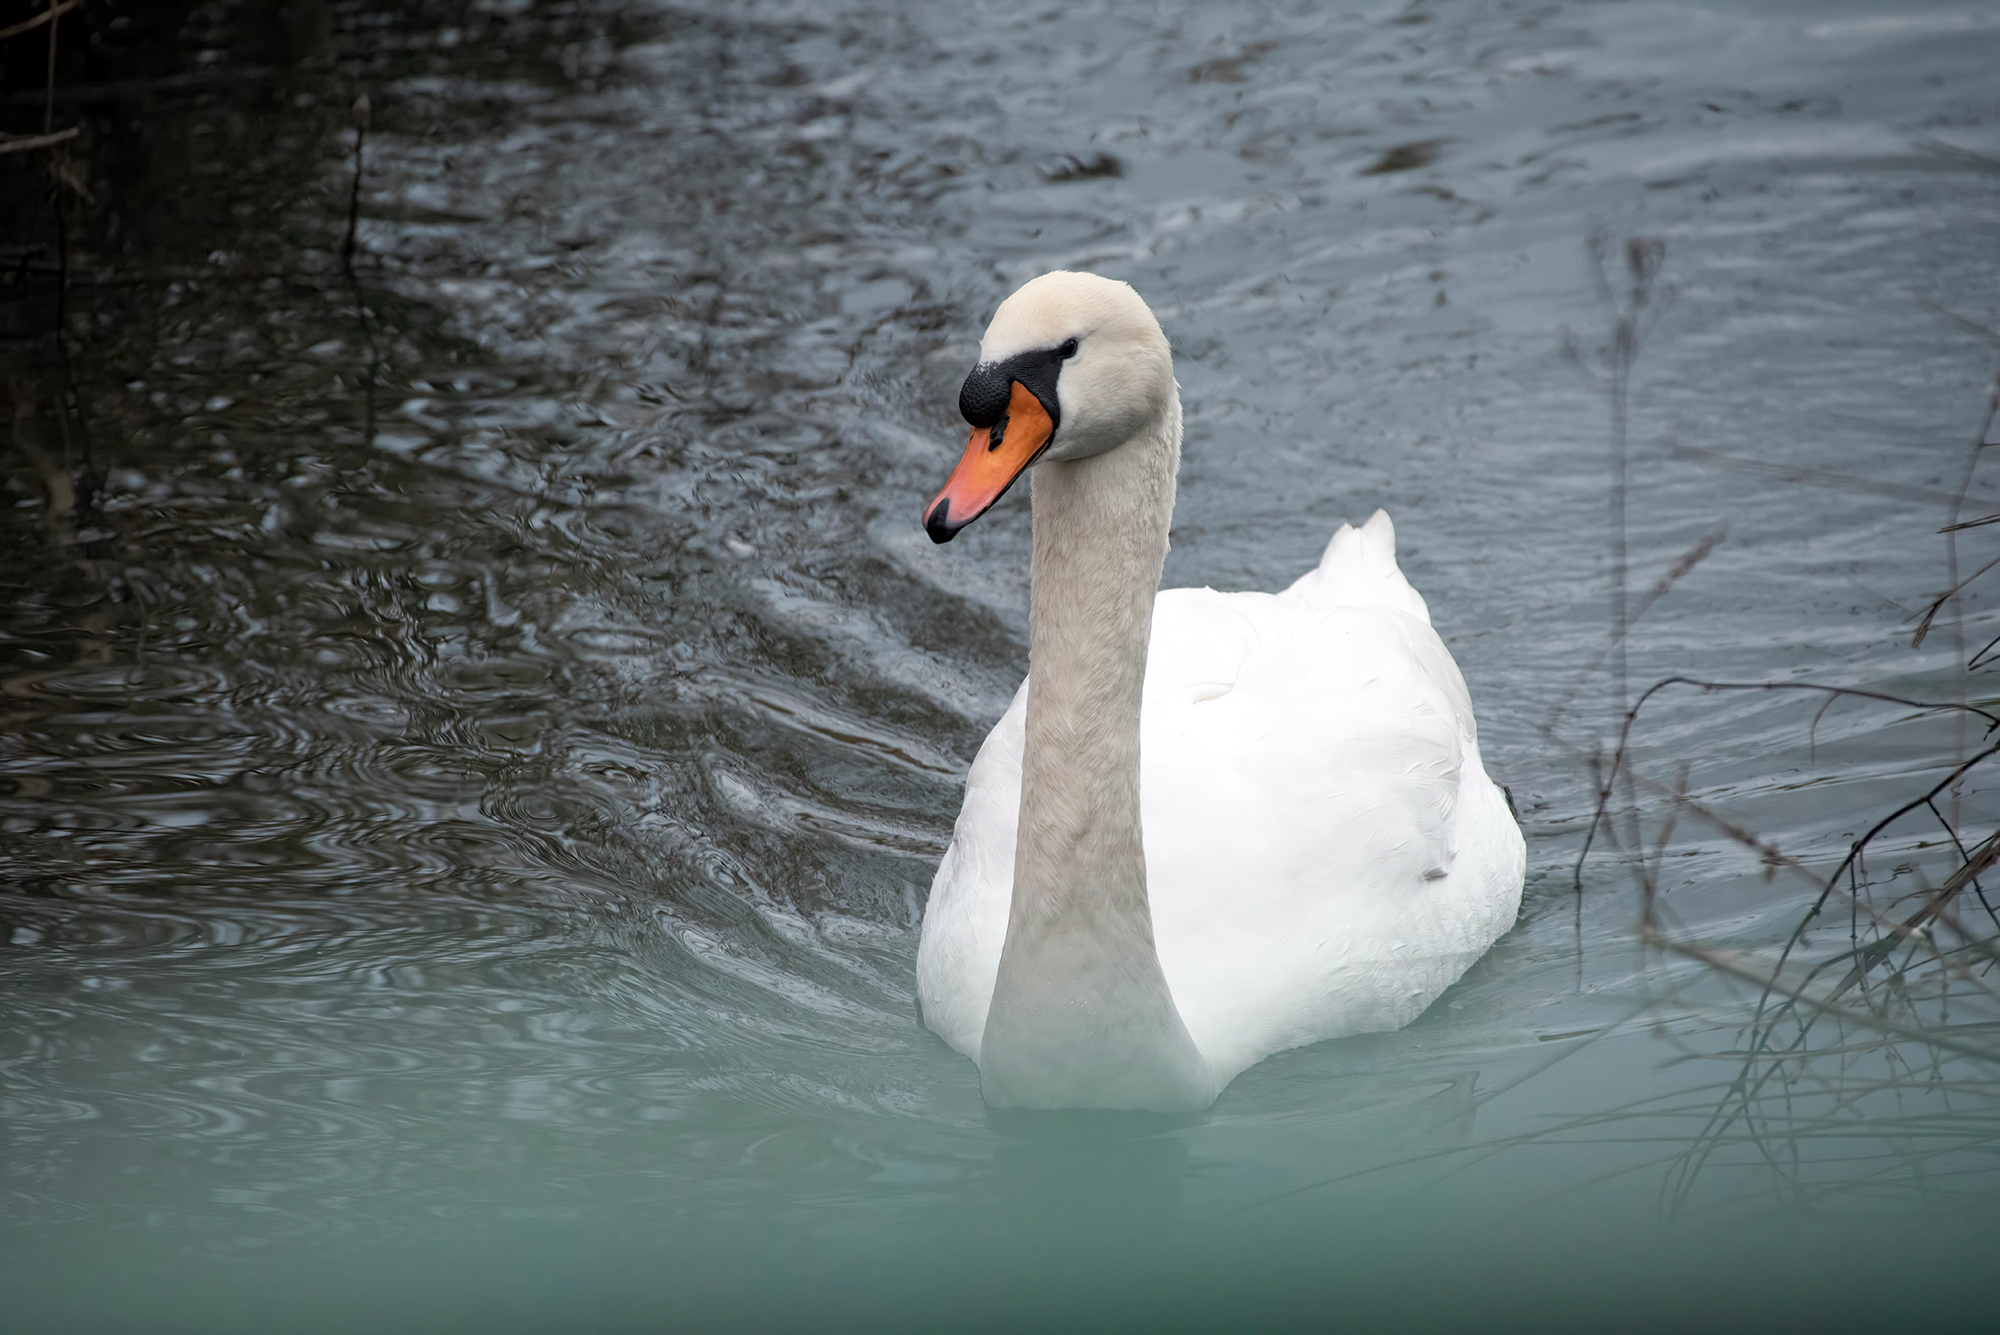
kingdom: Animalia
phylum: Chordata
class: Aves
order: Anseriformes
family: Anatidae
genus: Cygnus
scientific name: Cygnus olor
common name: Mute swan
